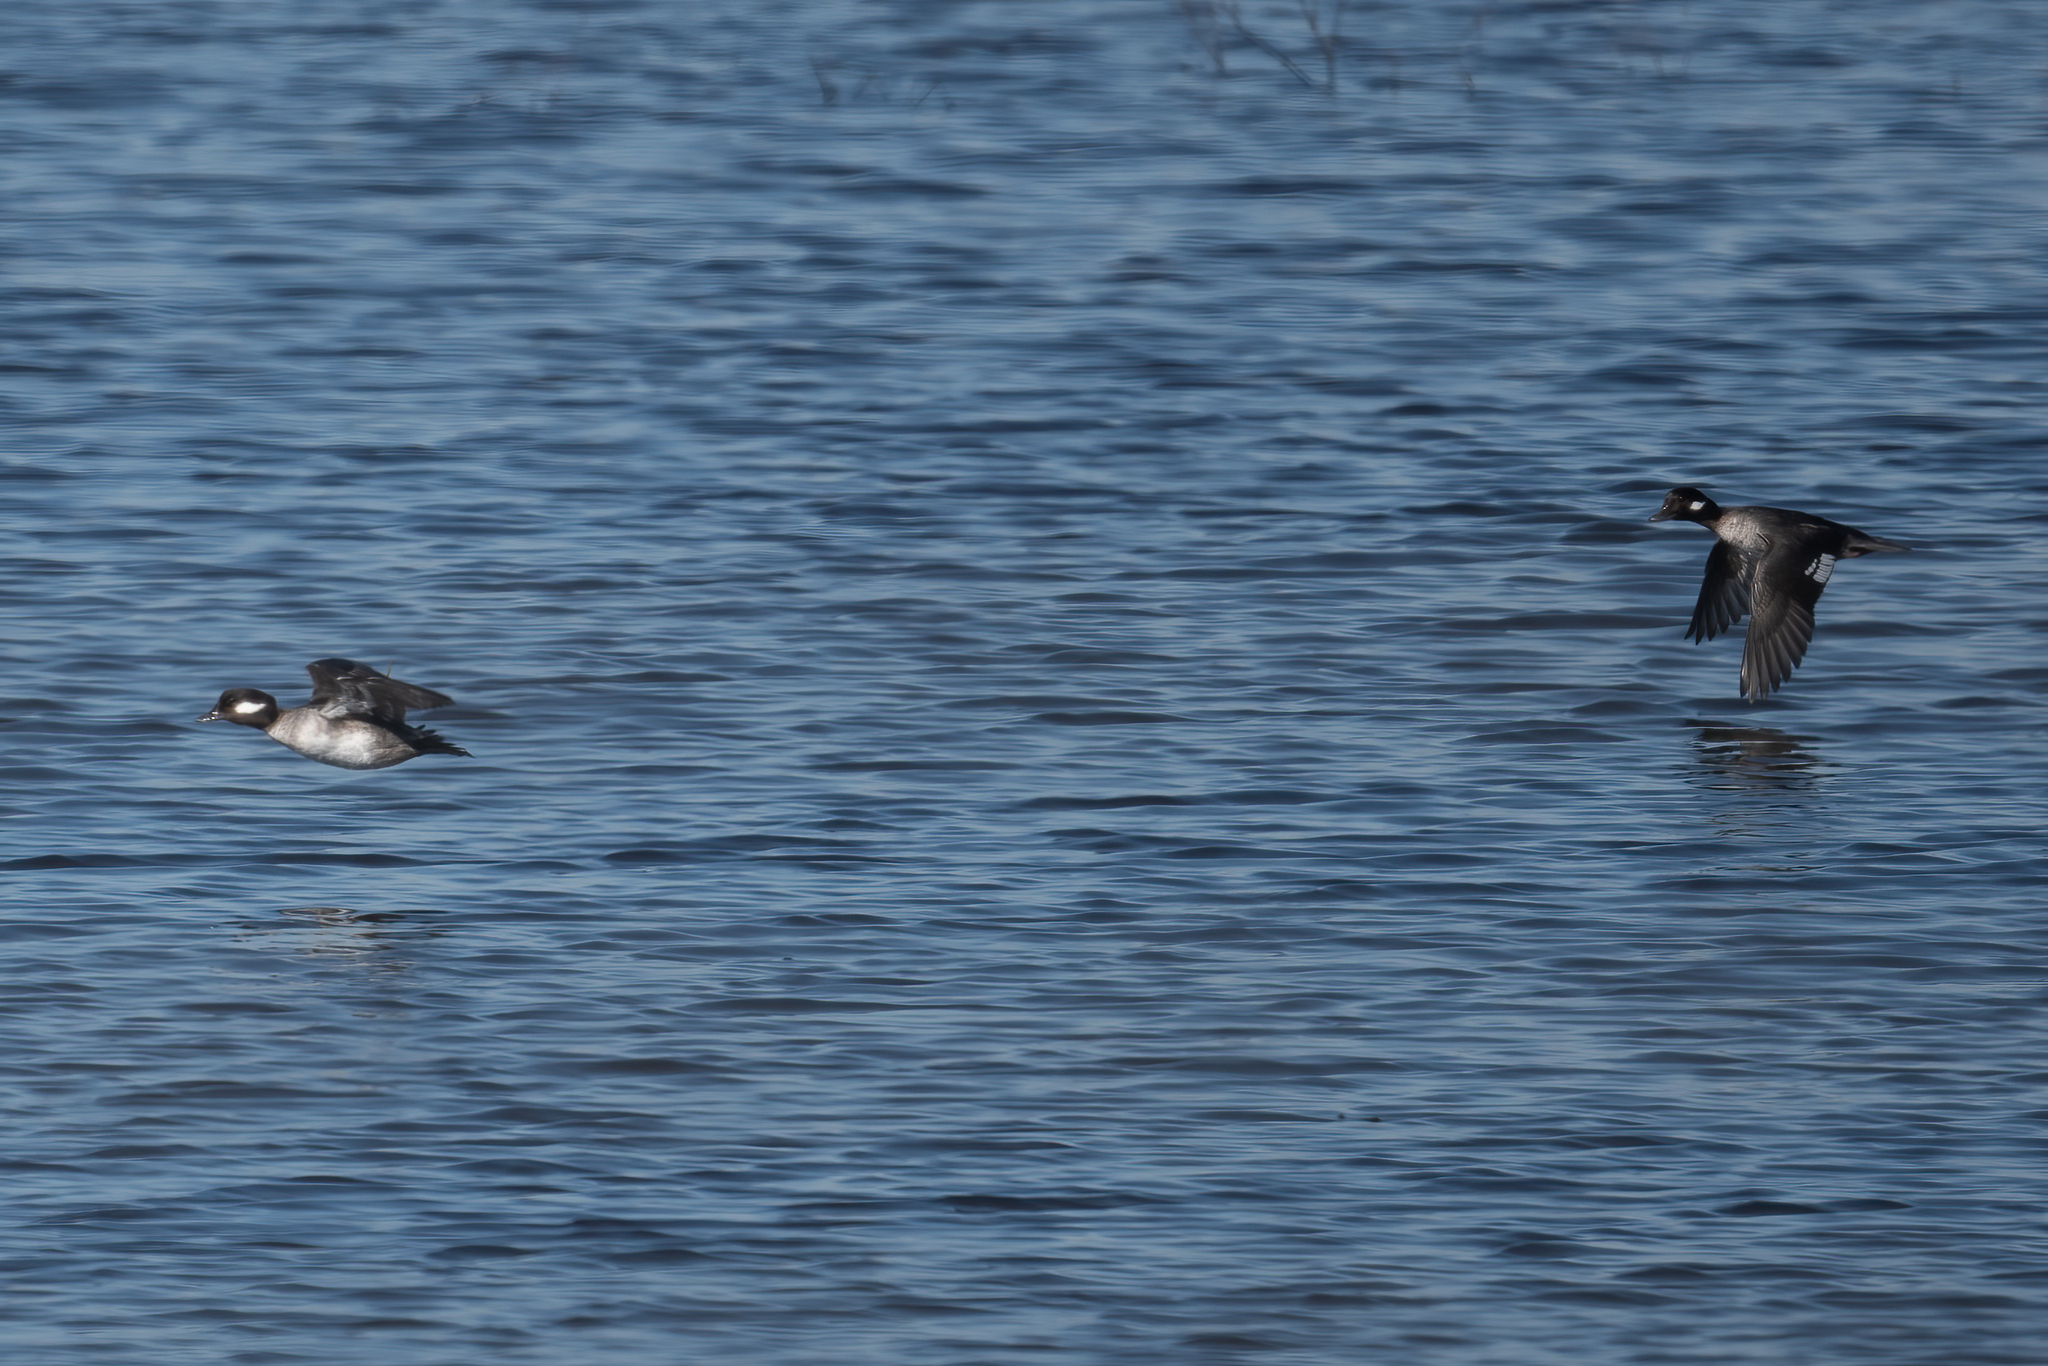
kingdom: Animalia
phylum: Chordata
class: Aves
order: Anseriformes
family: Anatidae
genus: Bucephala
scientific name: Bucephala albeola
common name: Bufflehead
